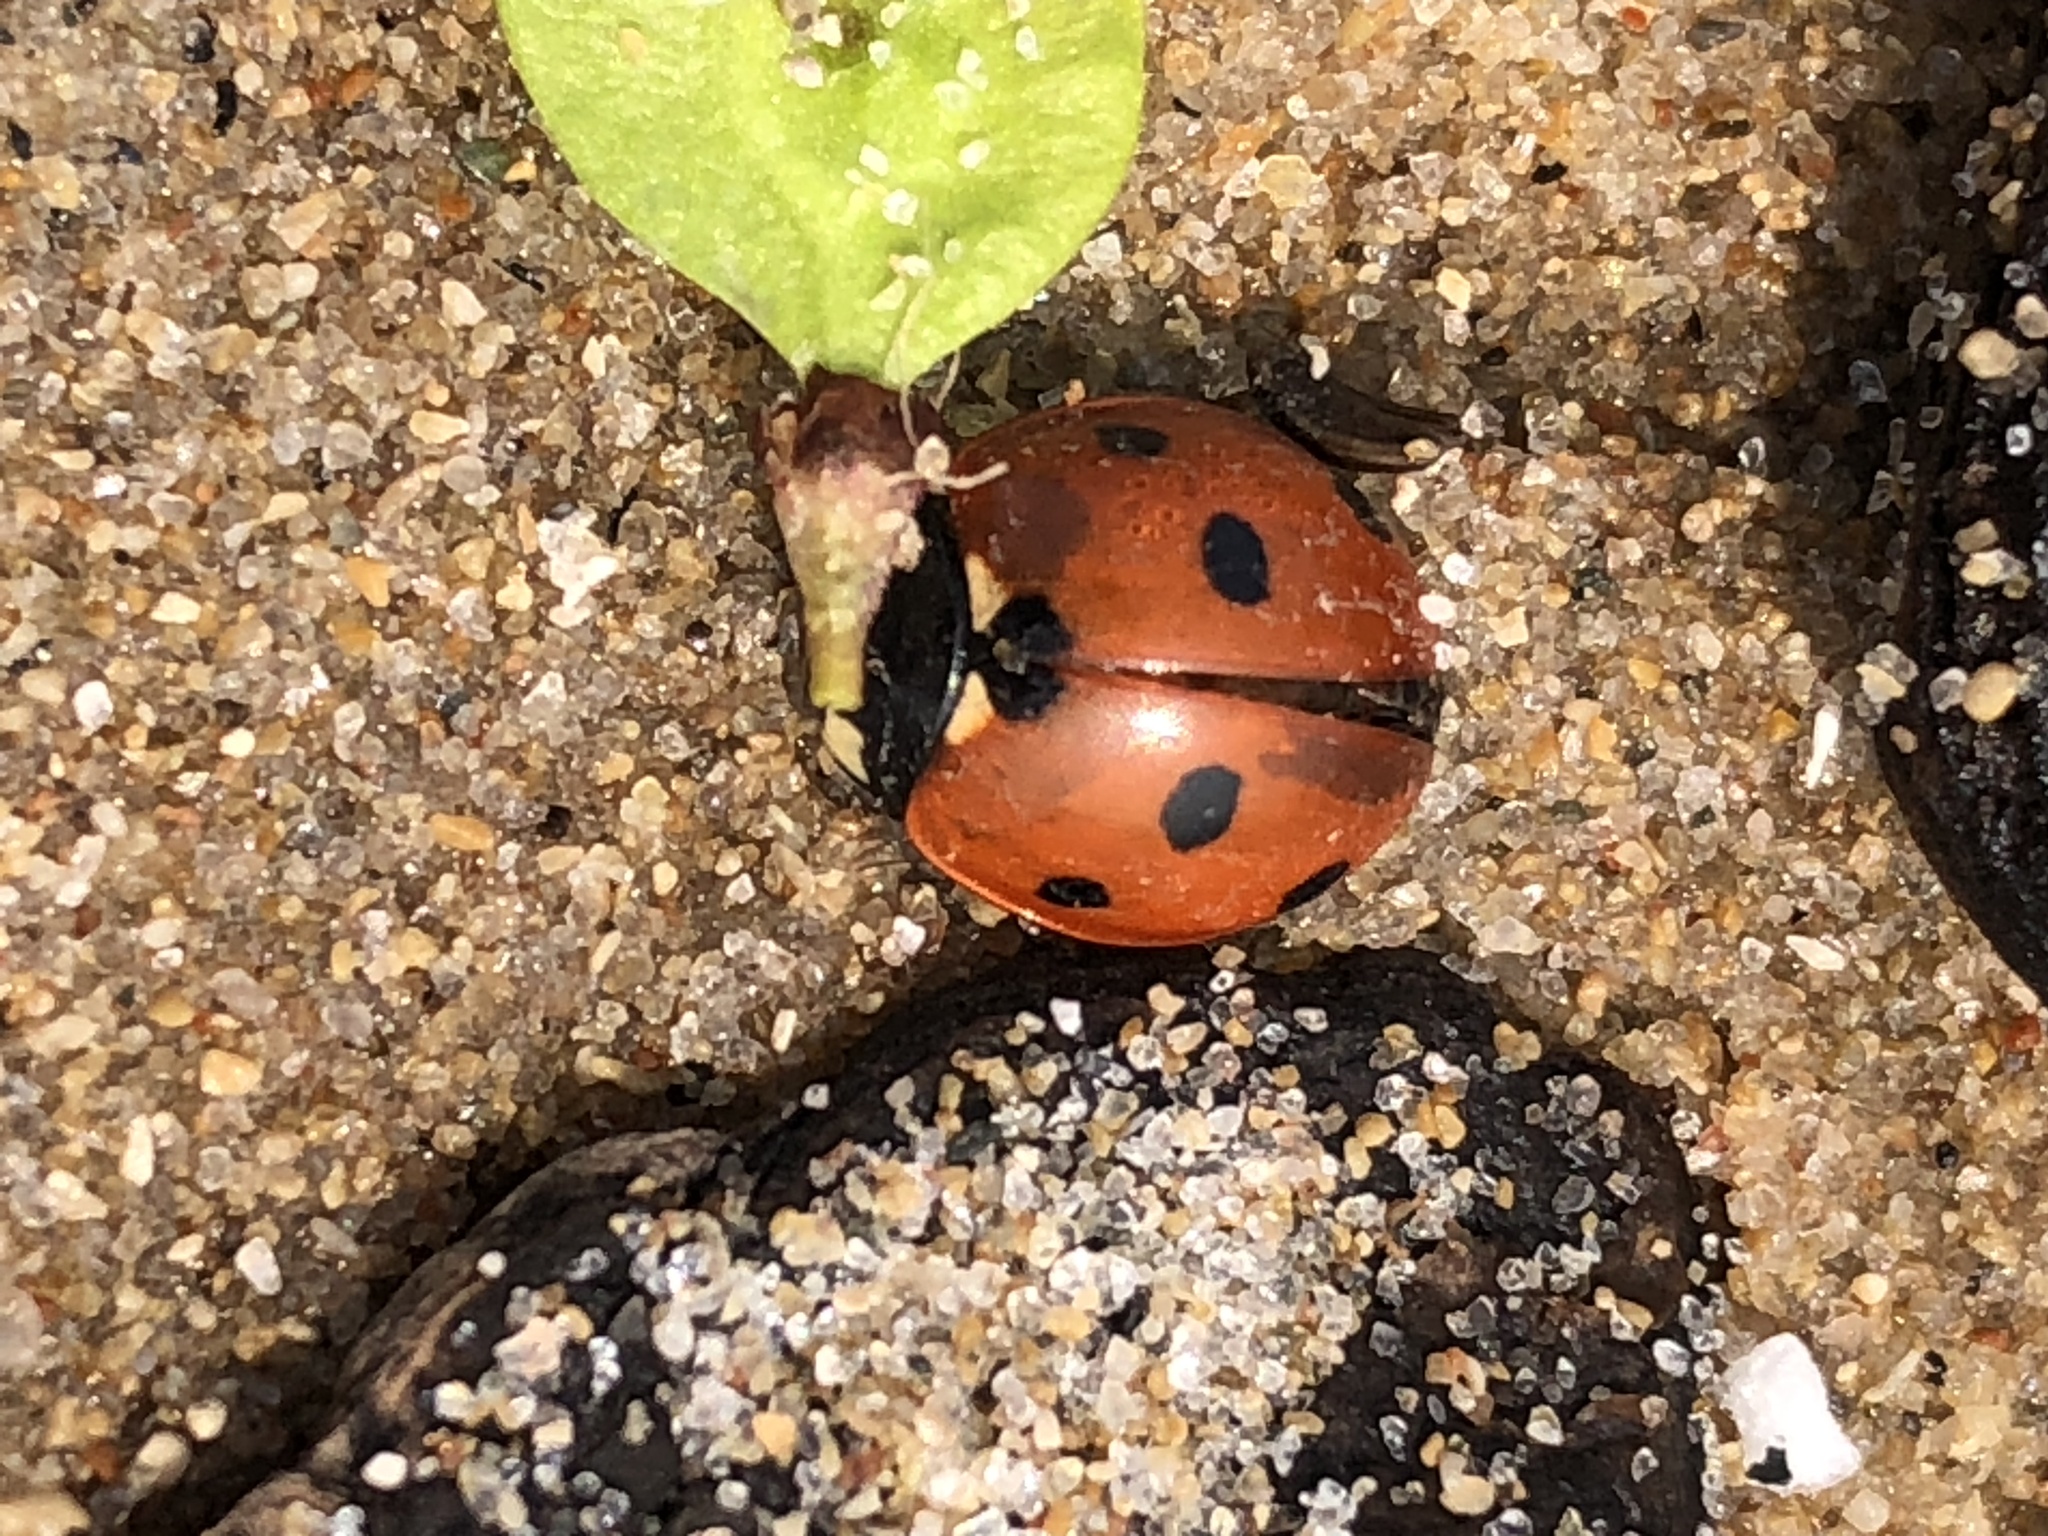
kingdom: Animalia
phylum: Arthropoda
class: Insecta
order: Coleoptera
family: Coccinellidae
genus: Coccinella
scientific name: Coccinella septempunctata
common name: Sevenspotted lady beetle
